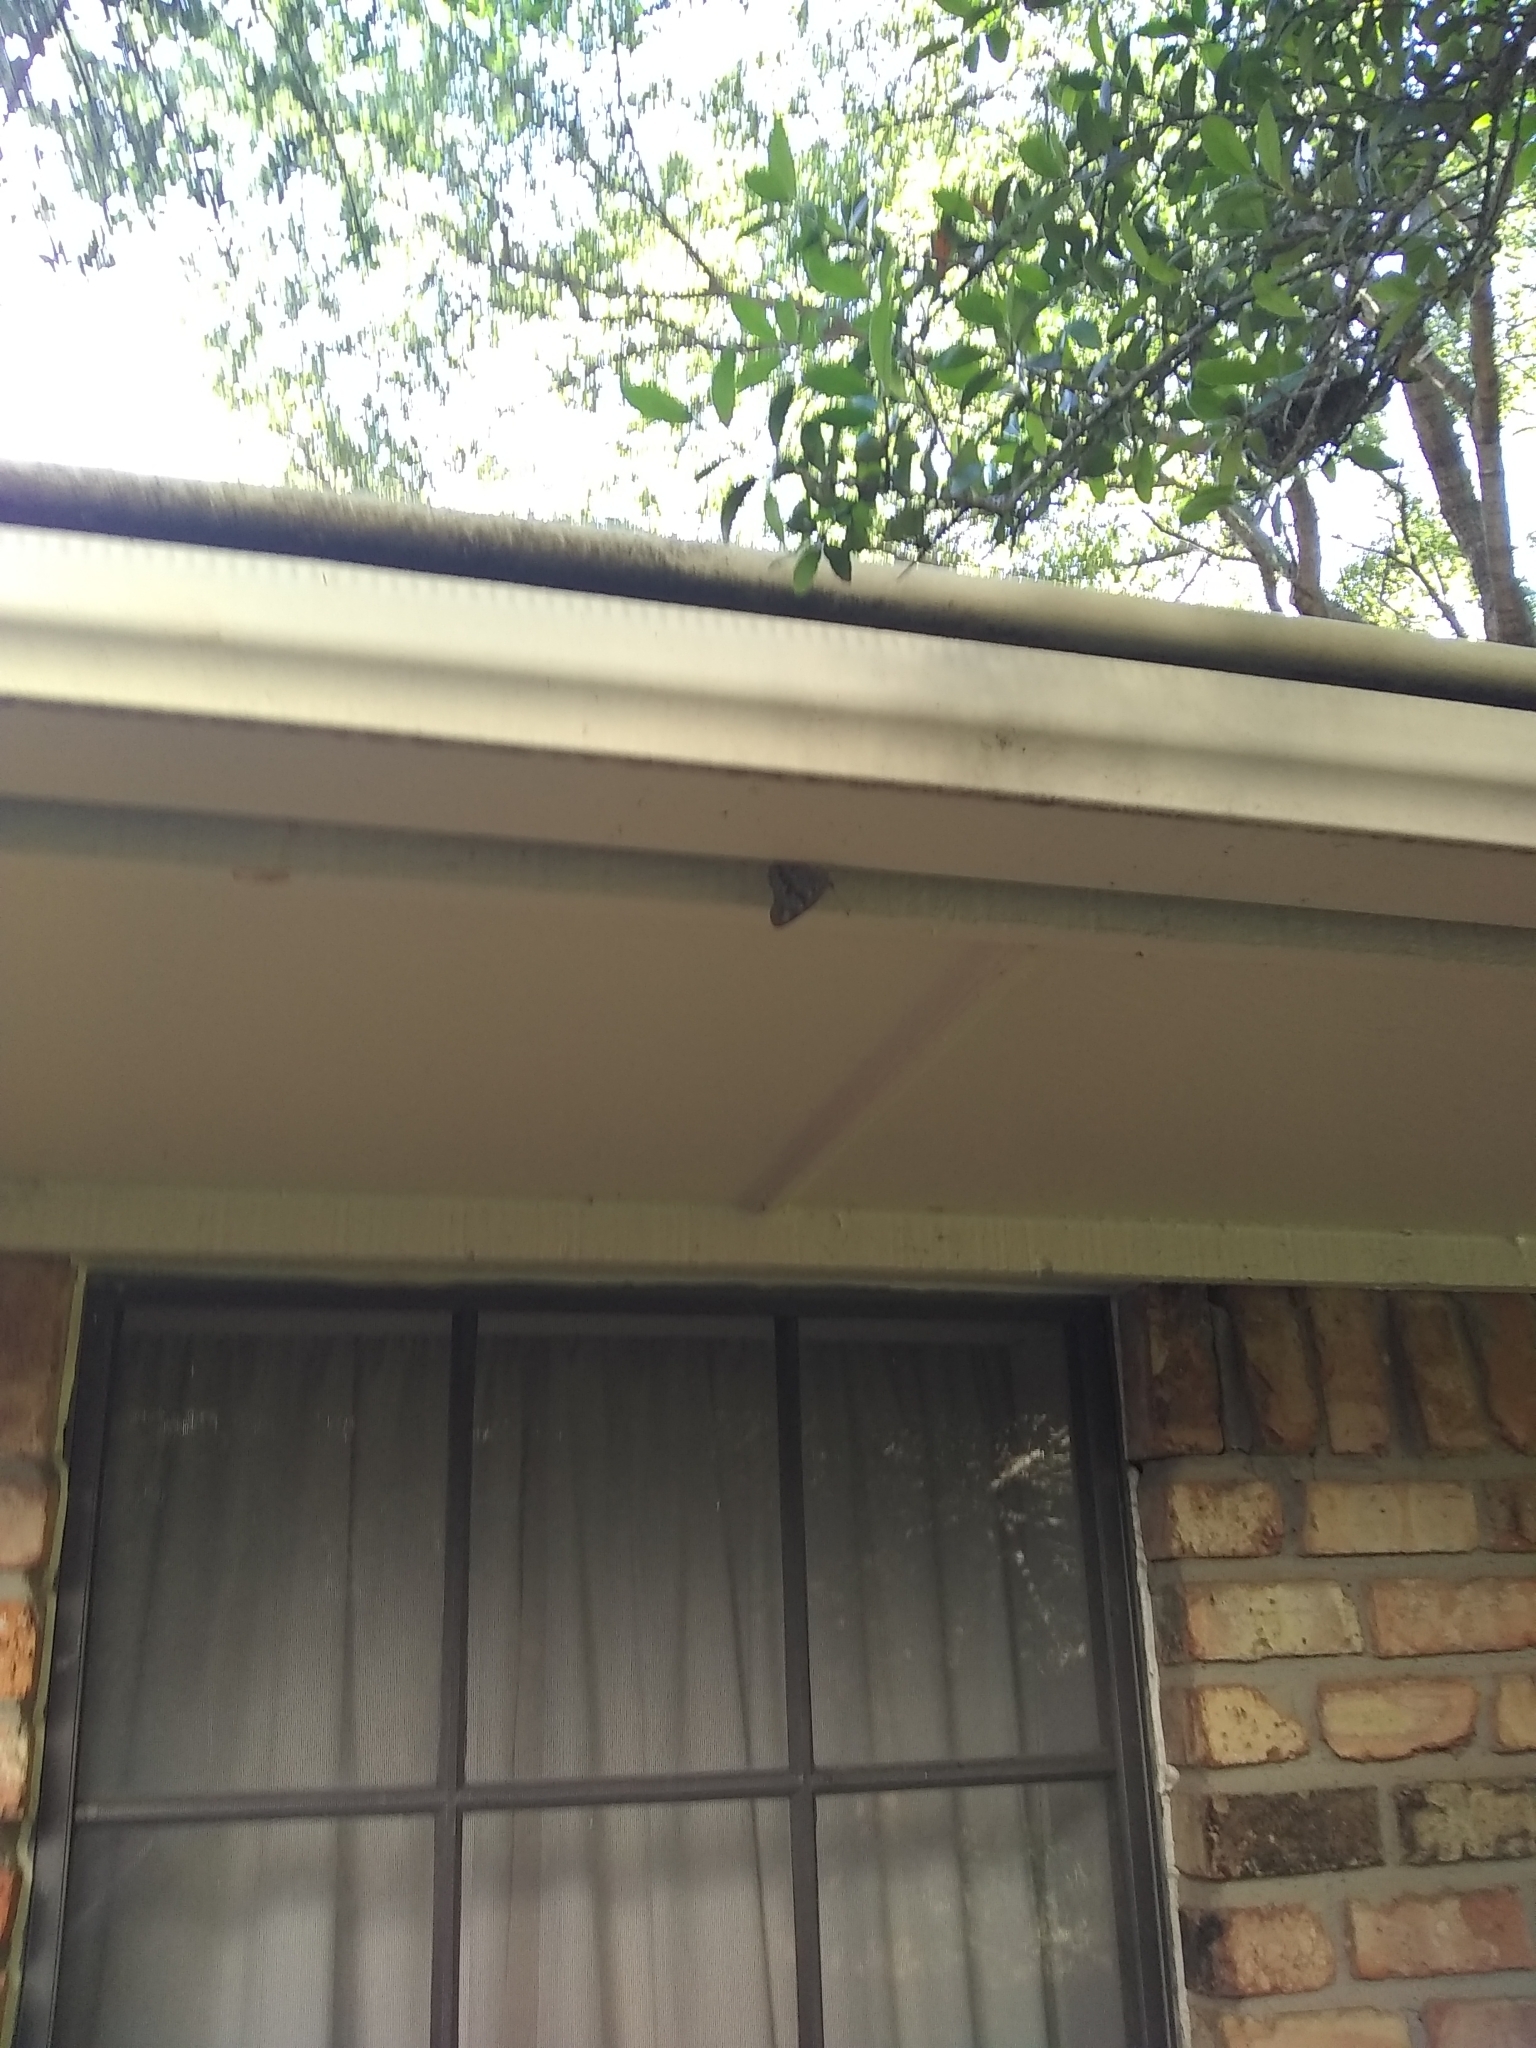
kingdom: Animalia
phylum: Arthropoda
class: Insecta
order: Lepidoptera
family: Nymphalidae
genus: Asterocampa
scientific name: Asterocampa celtis
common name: Hackberry emperor
